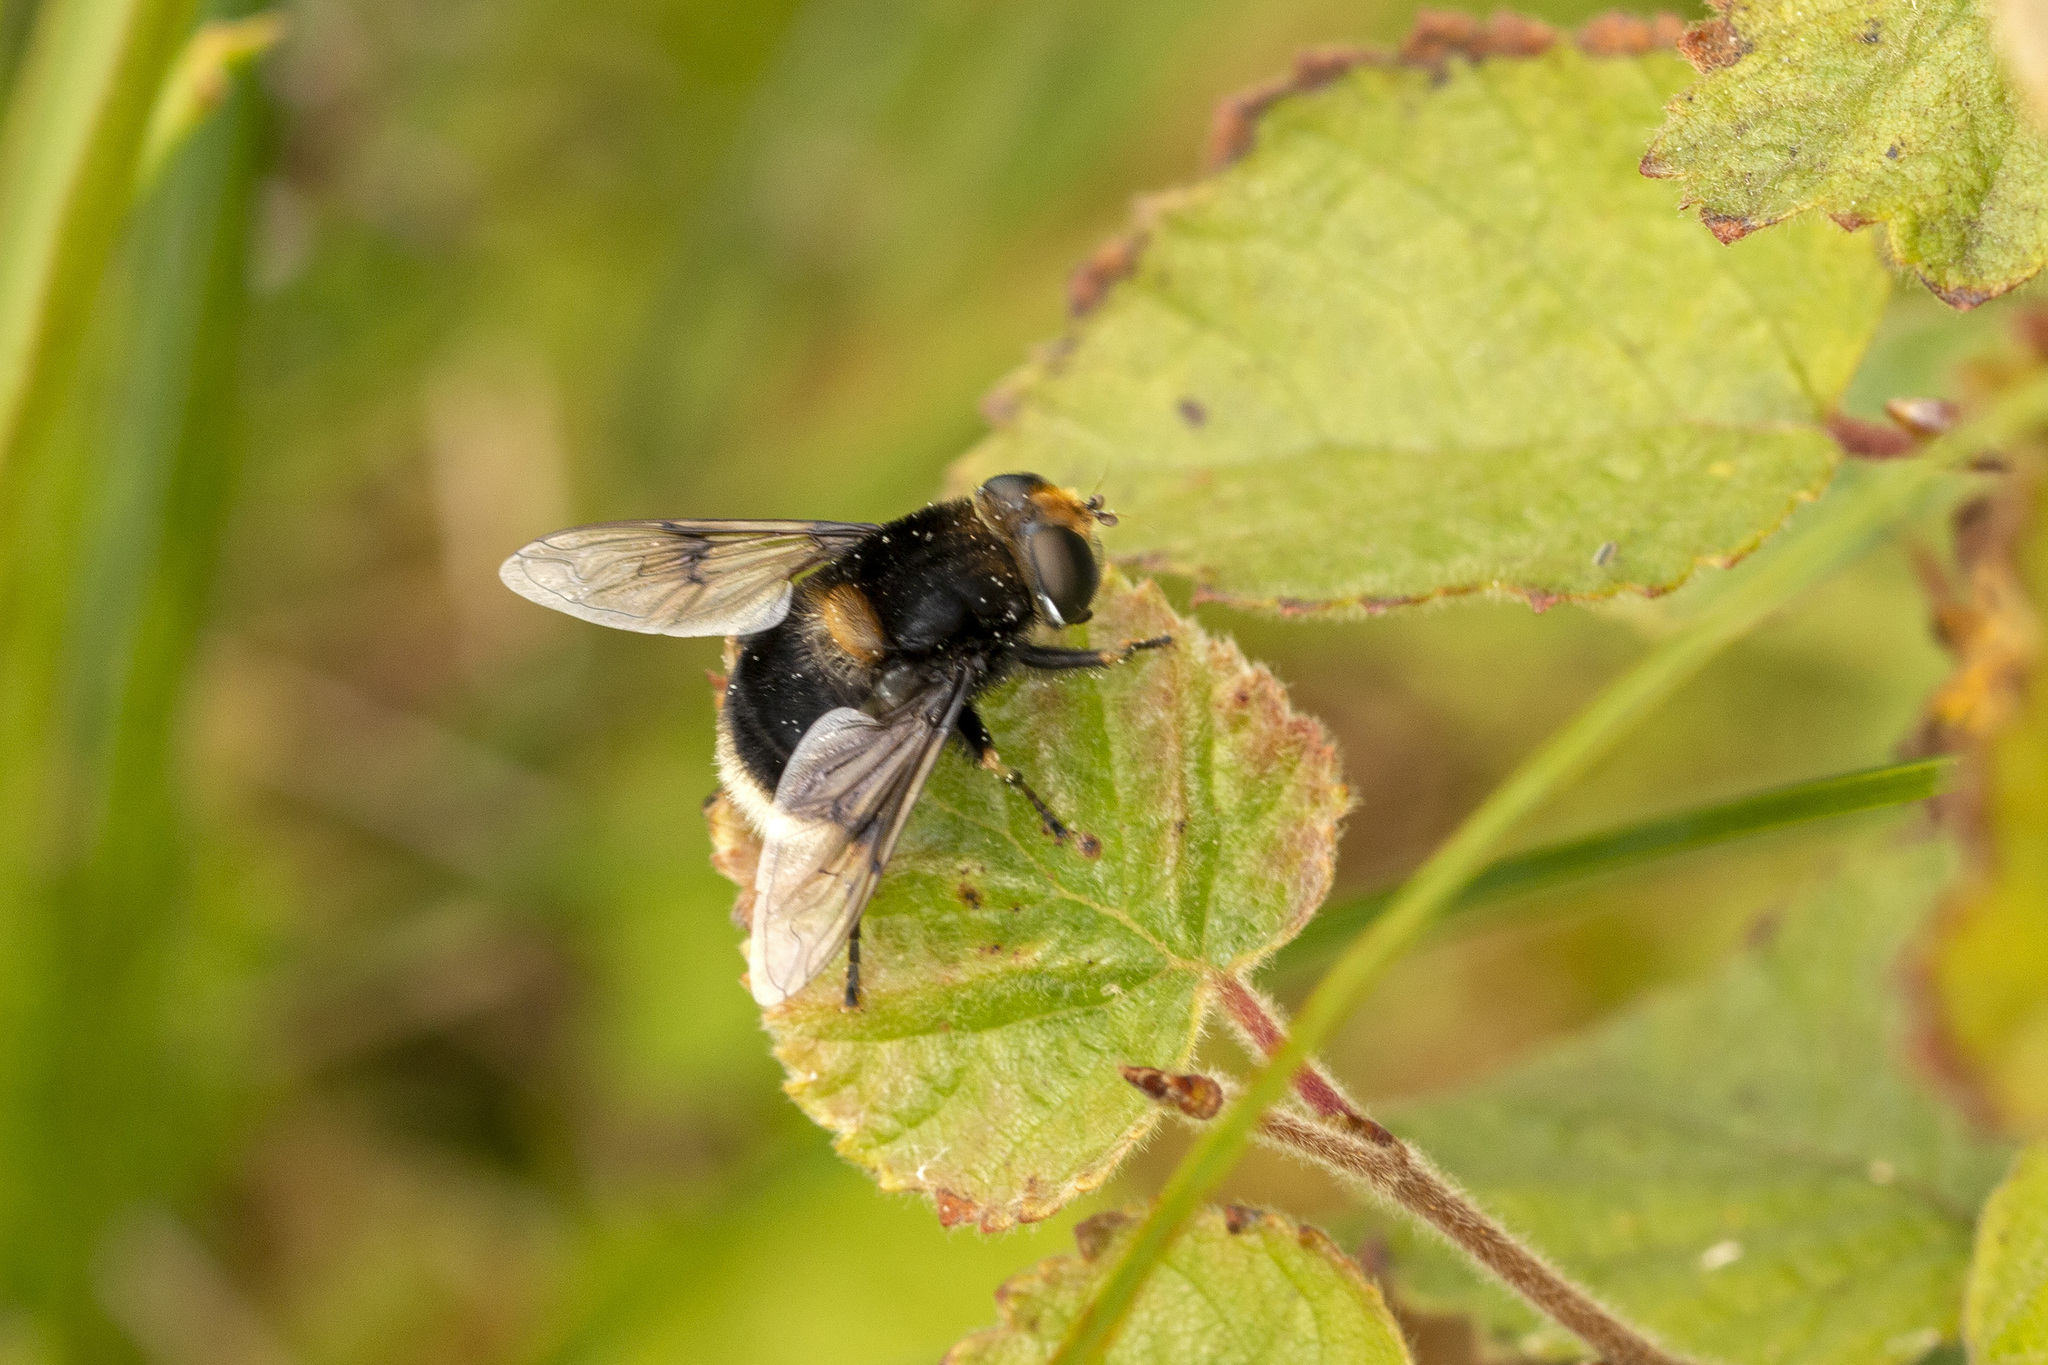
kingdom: Animalia
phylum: Arthropoda
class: Insecta
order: Diptera
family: Syrphidae
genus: Eristalis
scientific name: Eristalis intricaria
